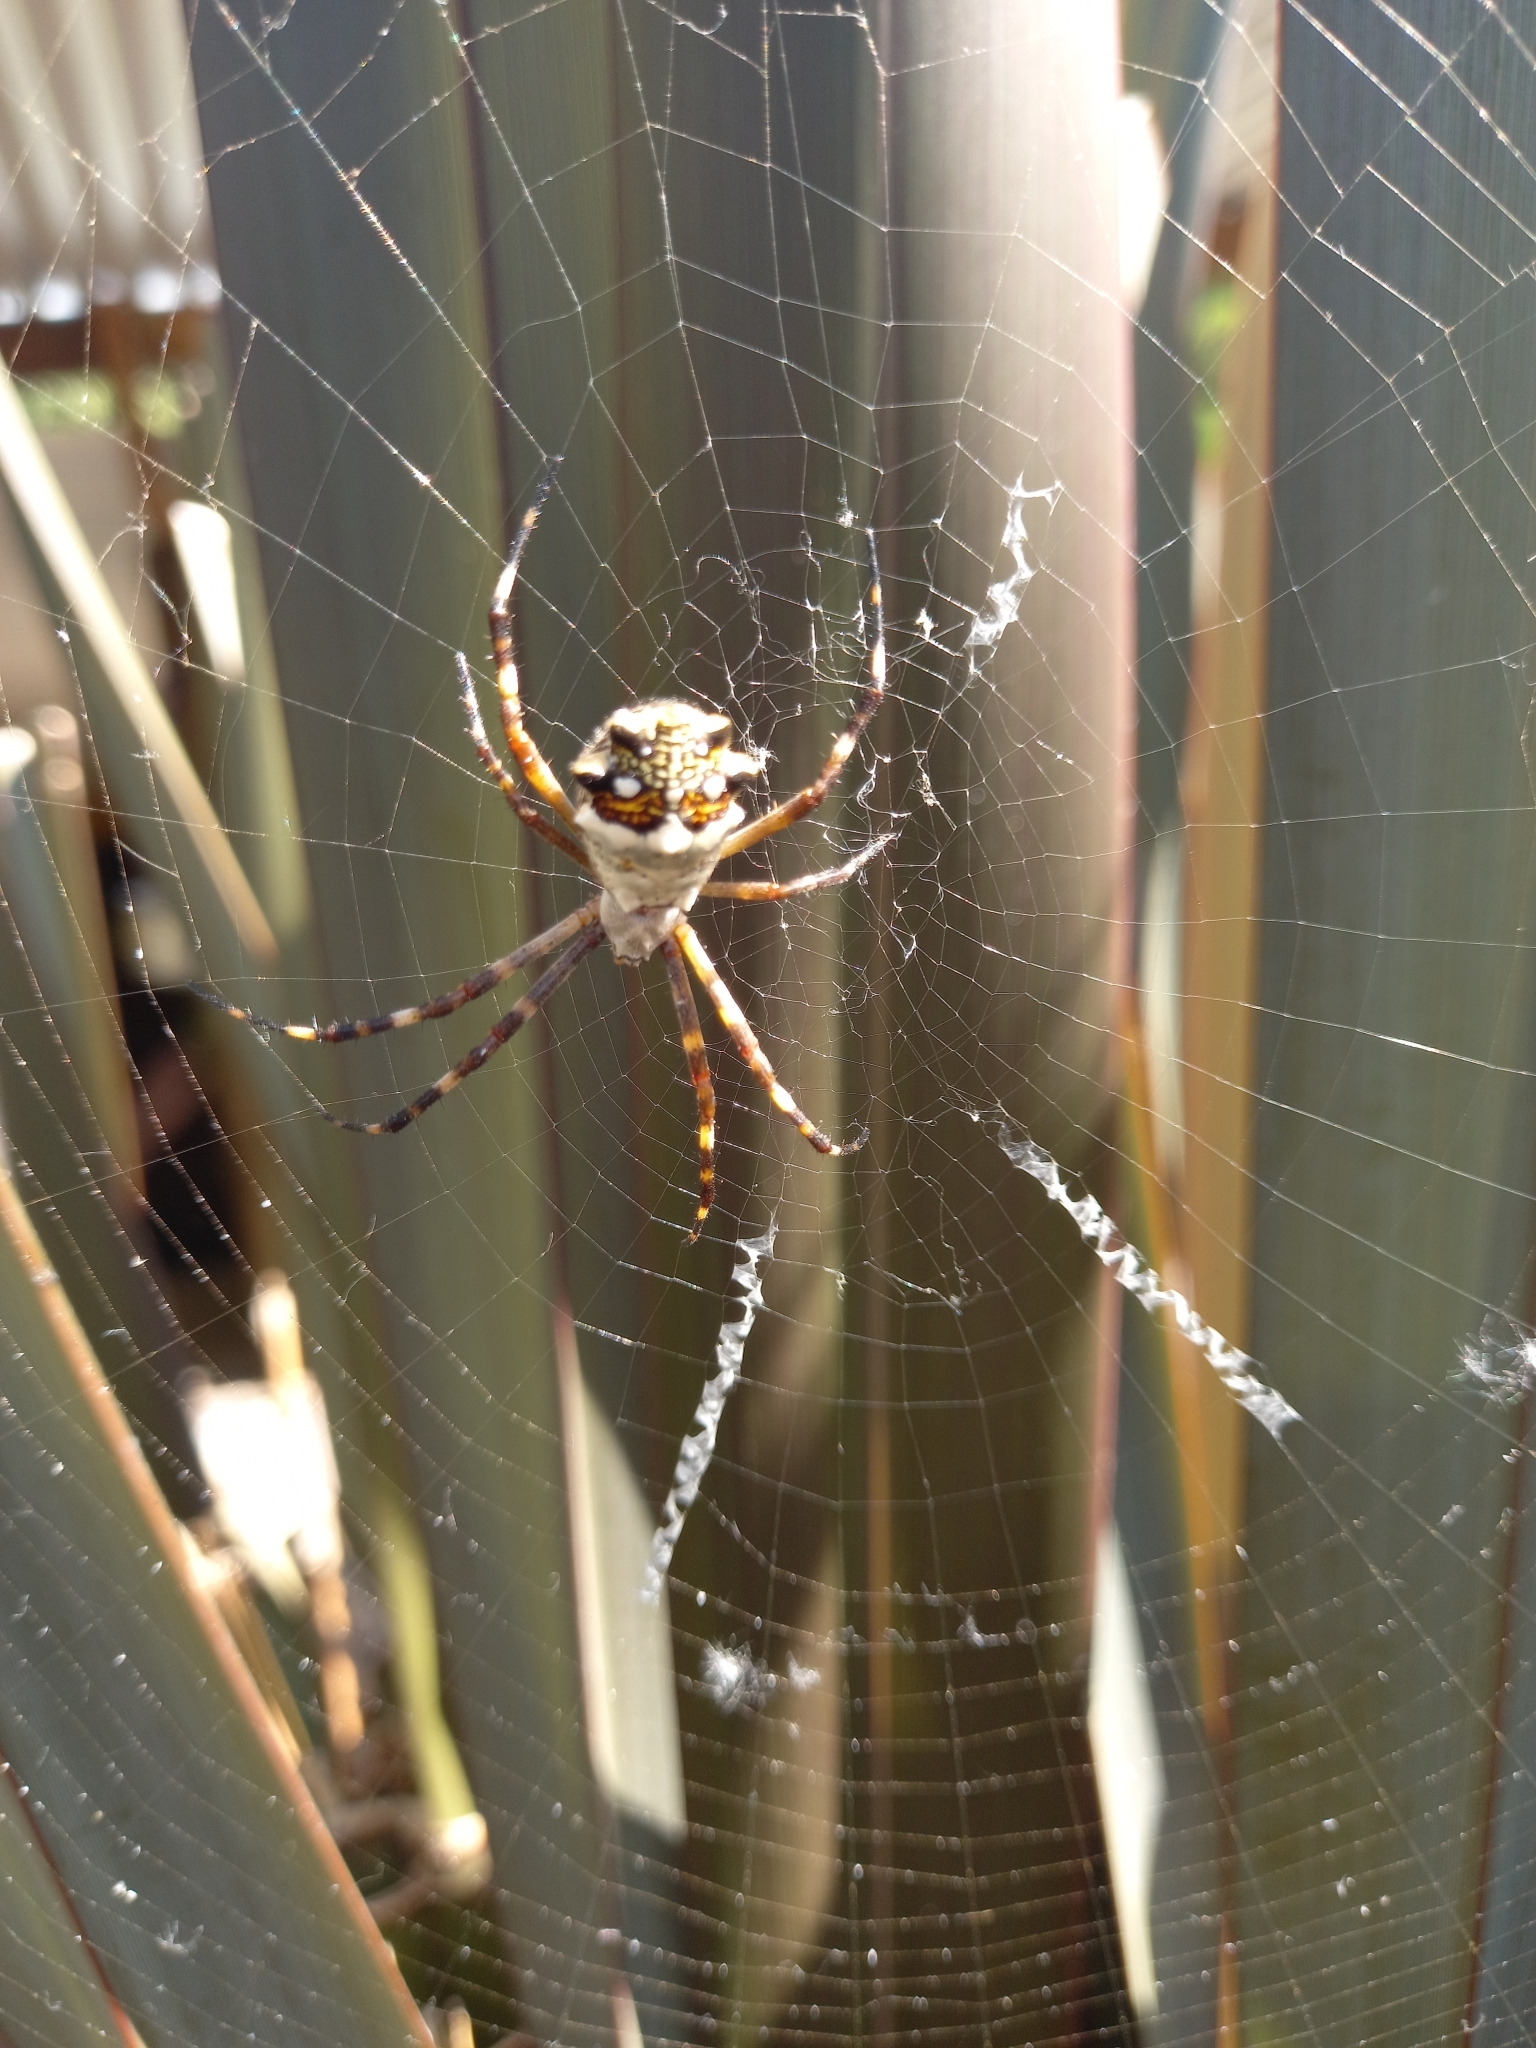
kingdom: Animalia
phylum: Arthropoda
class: Arachnida
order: Araneae
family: Araneidae
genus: Argiope
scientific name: Argiope argentata
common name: Orb weavers
